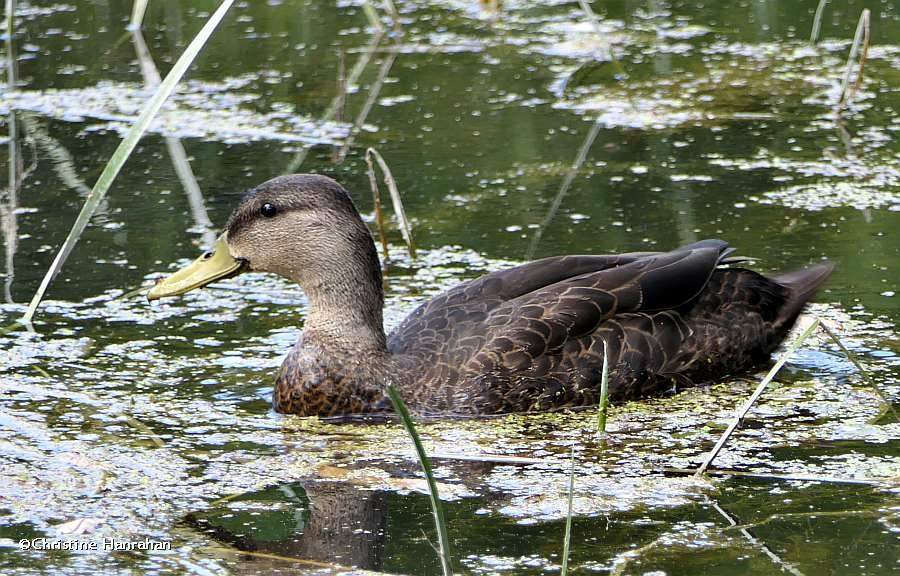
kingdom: Animalia
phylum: Chordata
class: Aves
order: Anseriformes
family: Anatidae
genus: Anas
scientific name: Anas rubripes
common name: American black duck
